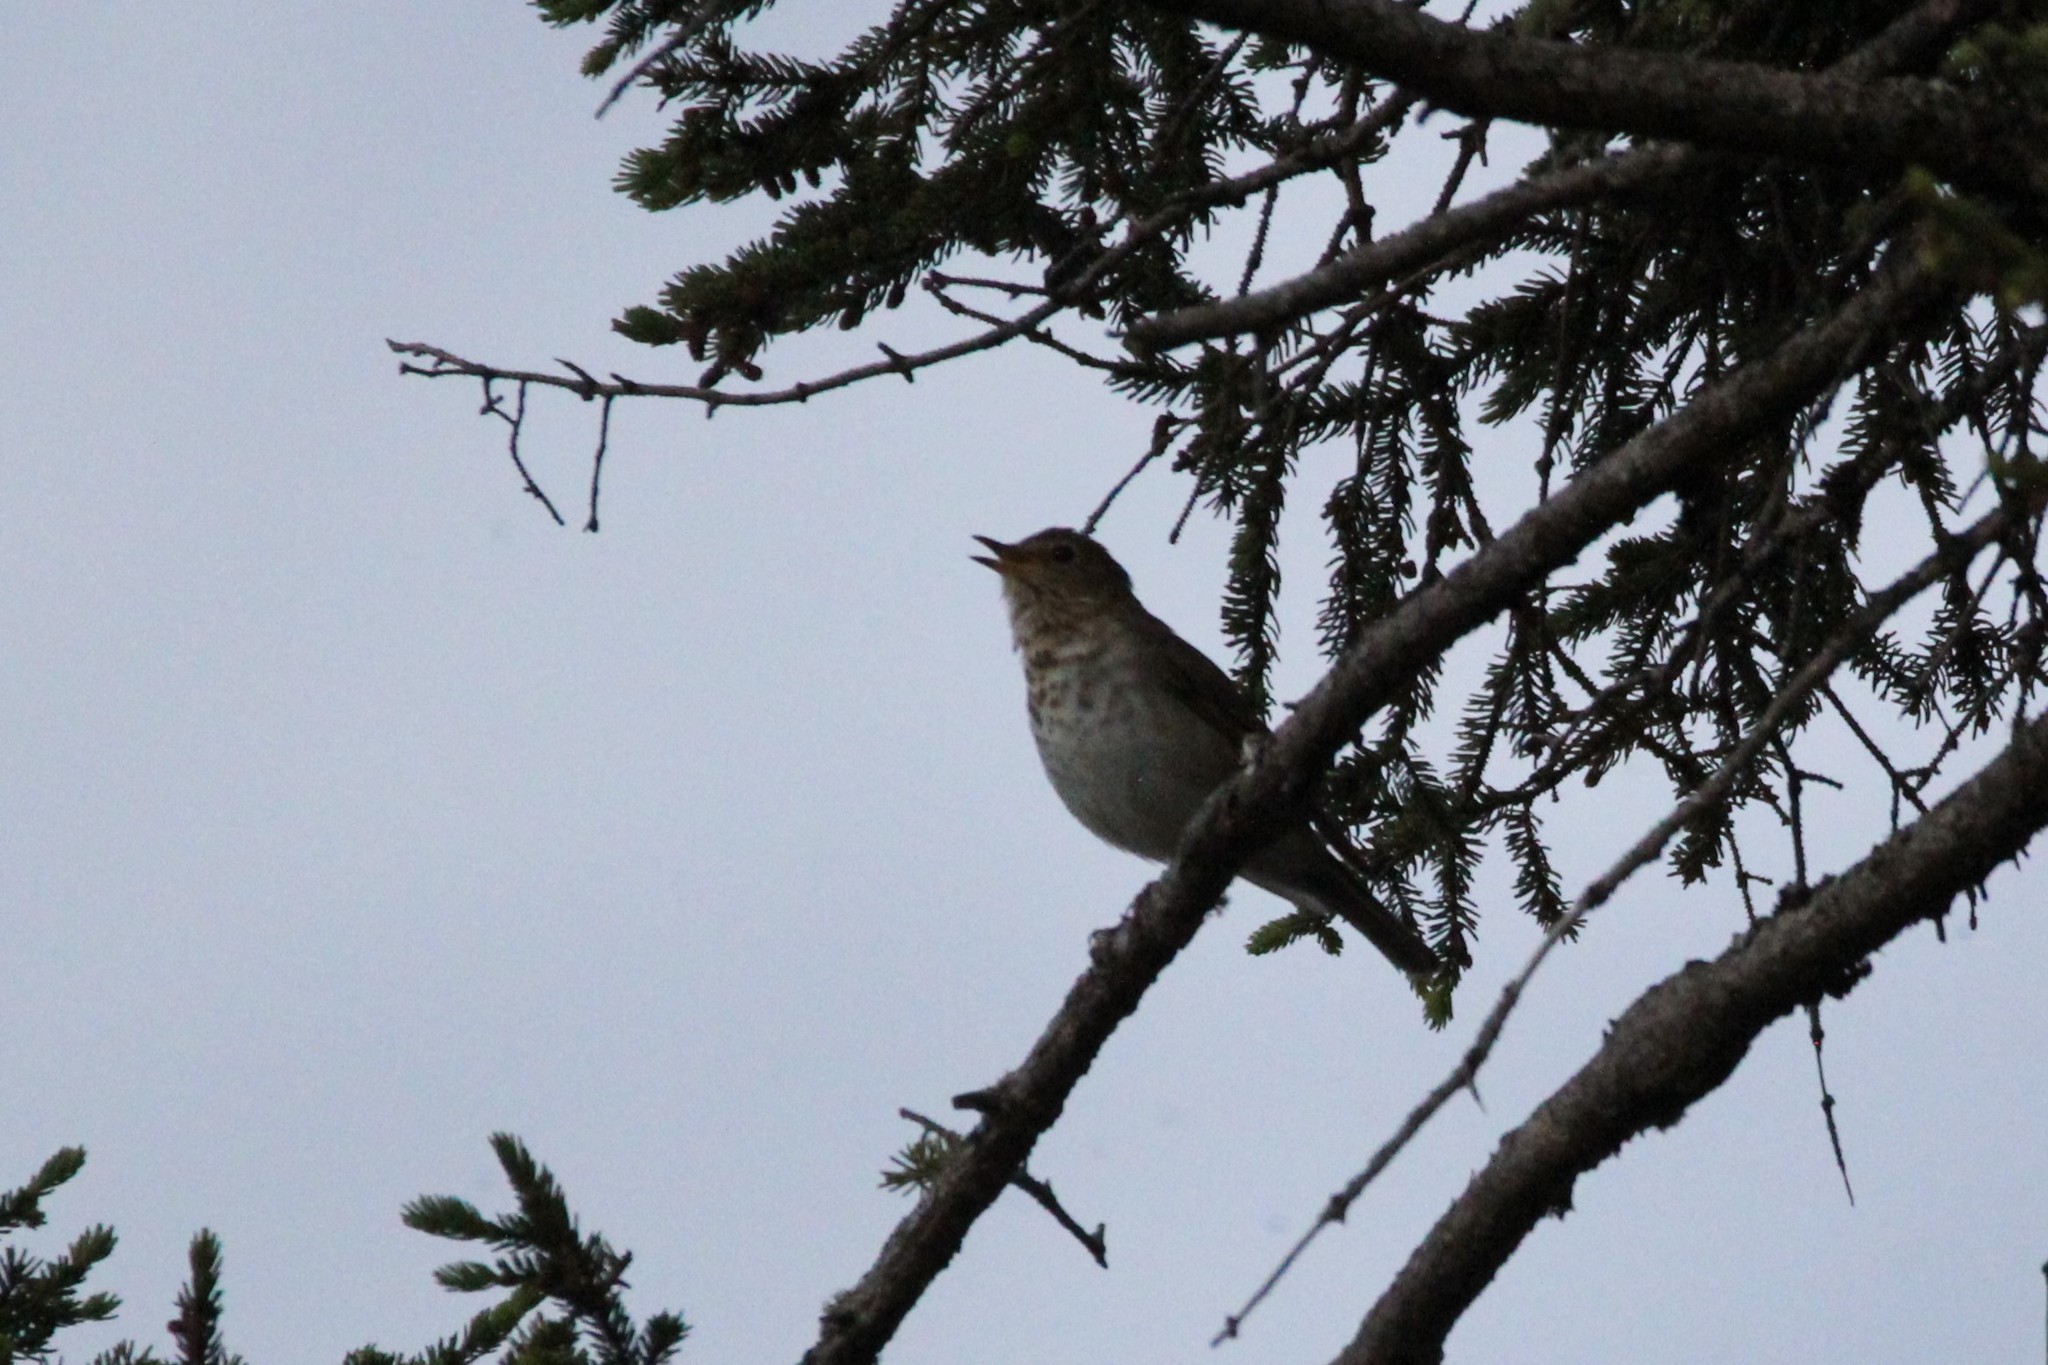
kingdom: Animalia
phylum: Chordata
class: Aves
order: Passeriformes
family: Turdidae
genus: Catharus
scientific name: Catharus ustulatus
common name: Swainson's thrush
